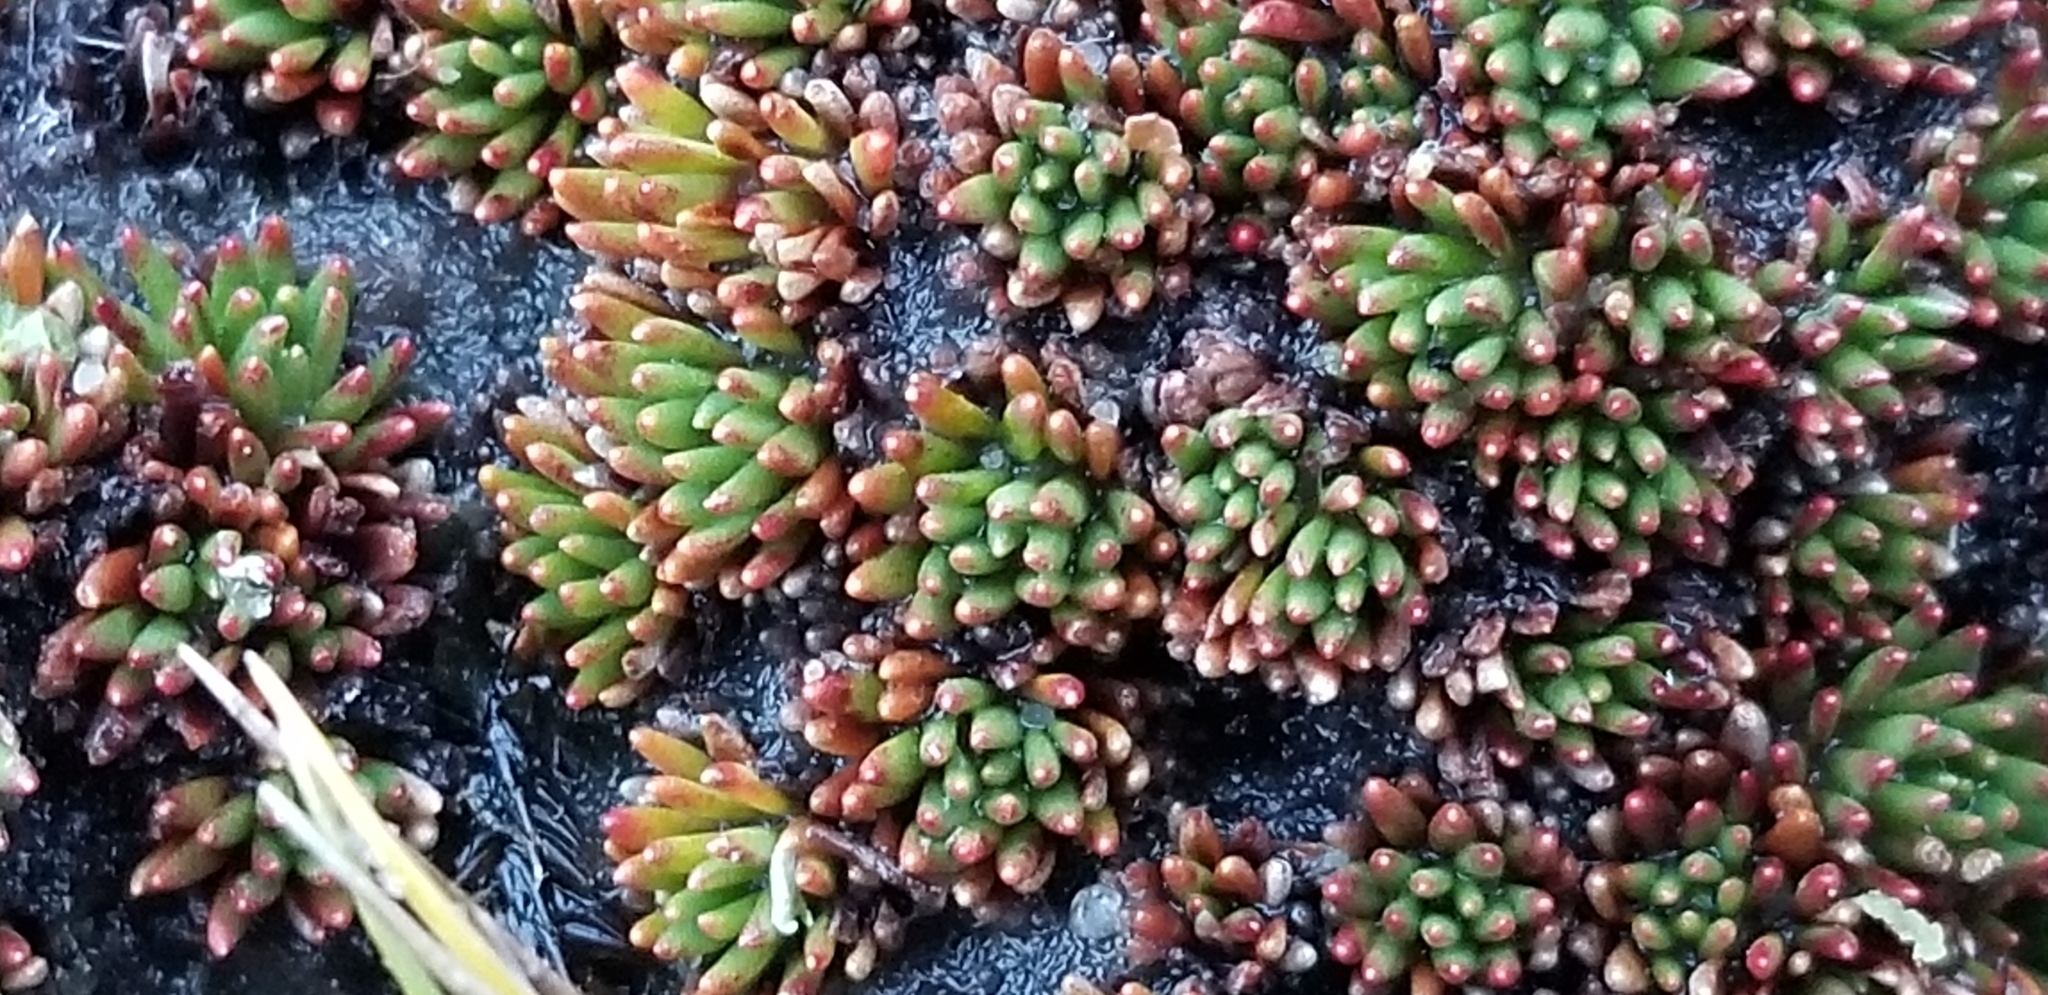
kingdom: Plantae
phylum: Tracheophyta
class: Magnoliopsida
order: Asterales
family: Stylidiaceae
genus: Donatia
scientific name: Donatia novae-zelandiae
